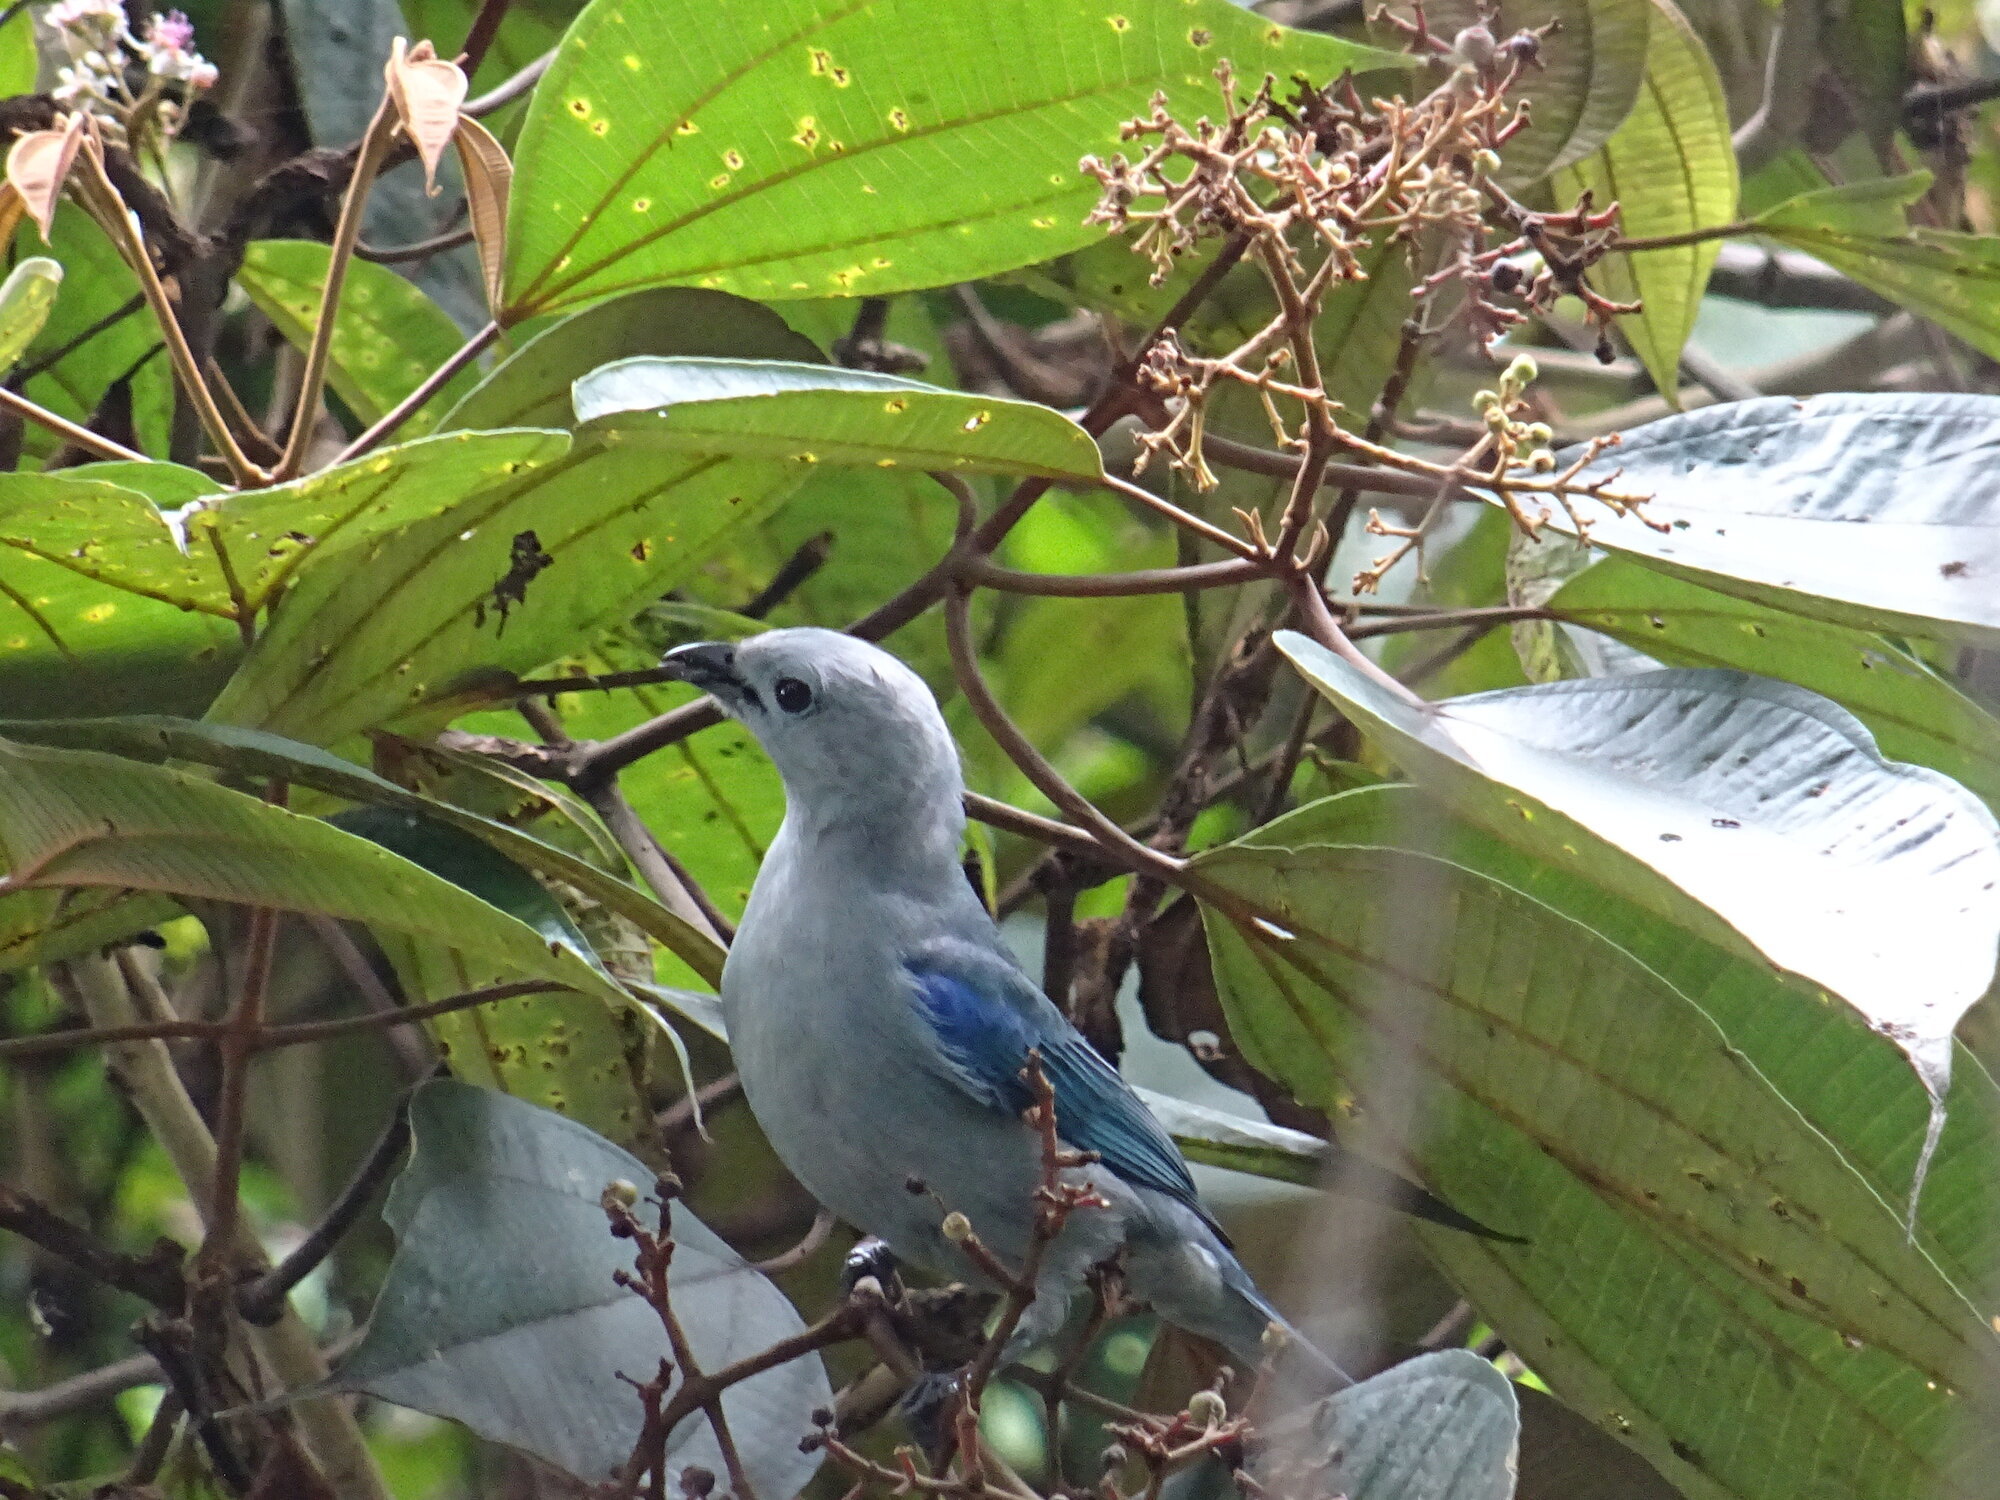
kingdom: Animalia
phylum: Chordata
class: Aves
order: Passeriformes
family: Thraupidae
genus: Thraupis
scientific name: Thraupis episcopus
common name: Blue-grey tanager
